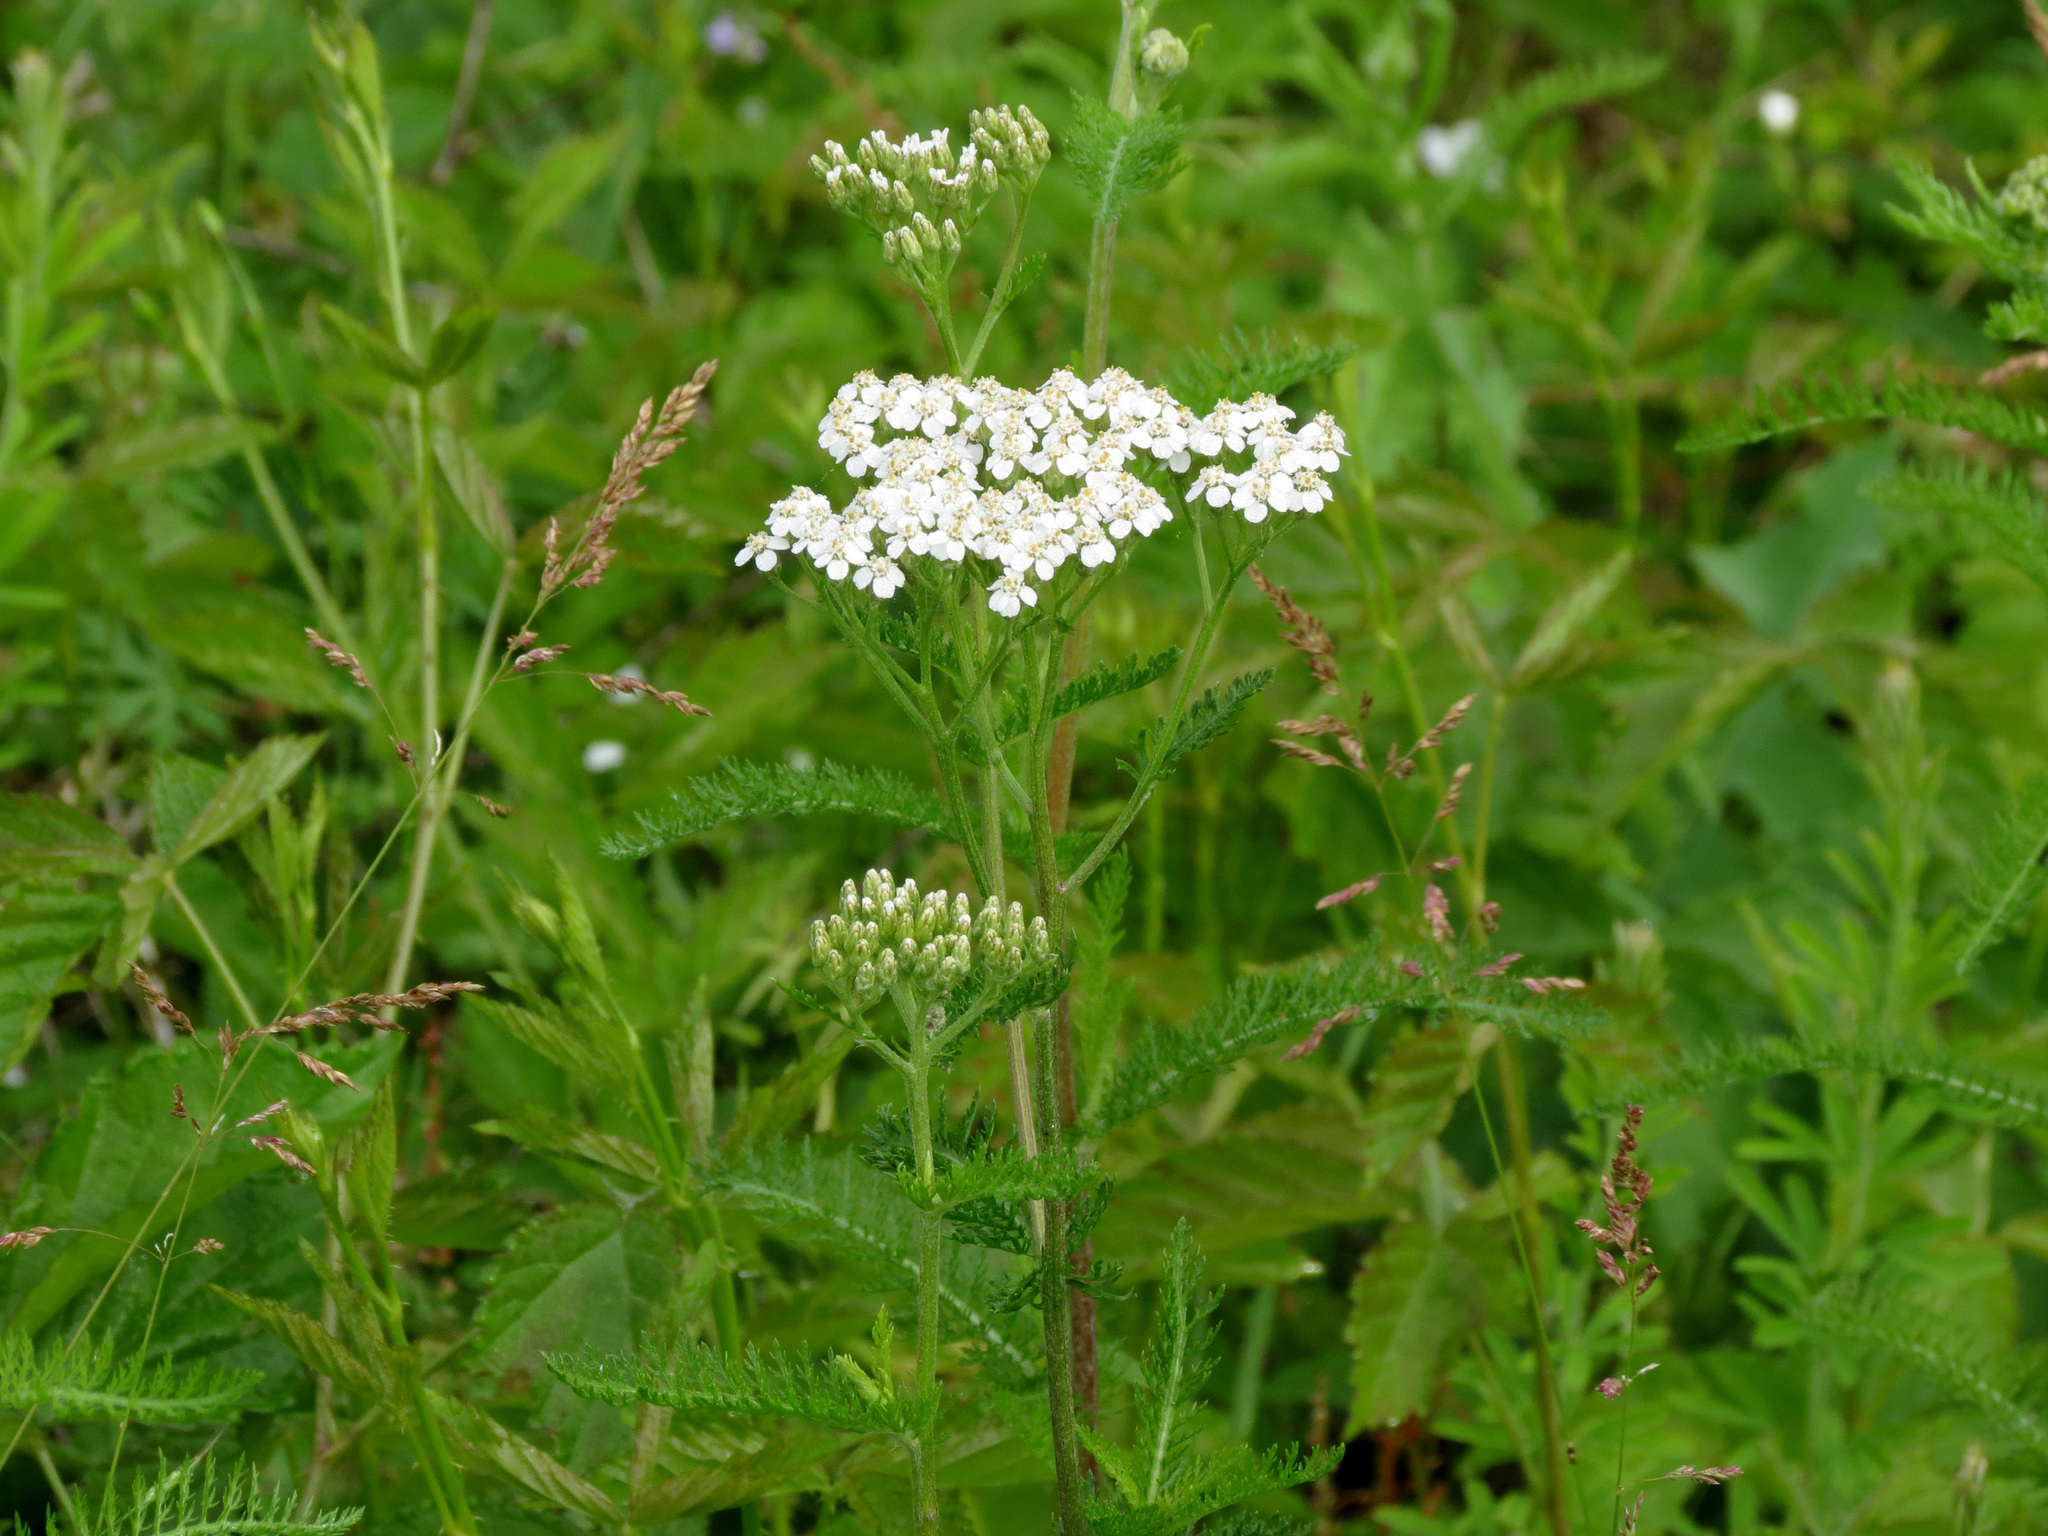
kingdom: Plantae
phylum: Tracheophyta
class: Magnoliopsida
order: Asterales
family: Asteraceae
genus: Achillea
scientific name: Achillea millefolium
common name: Yarrow
